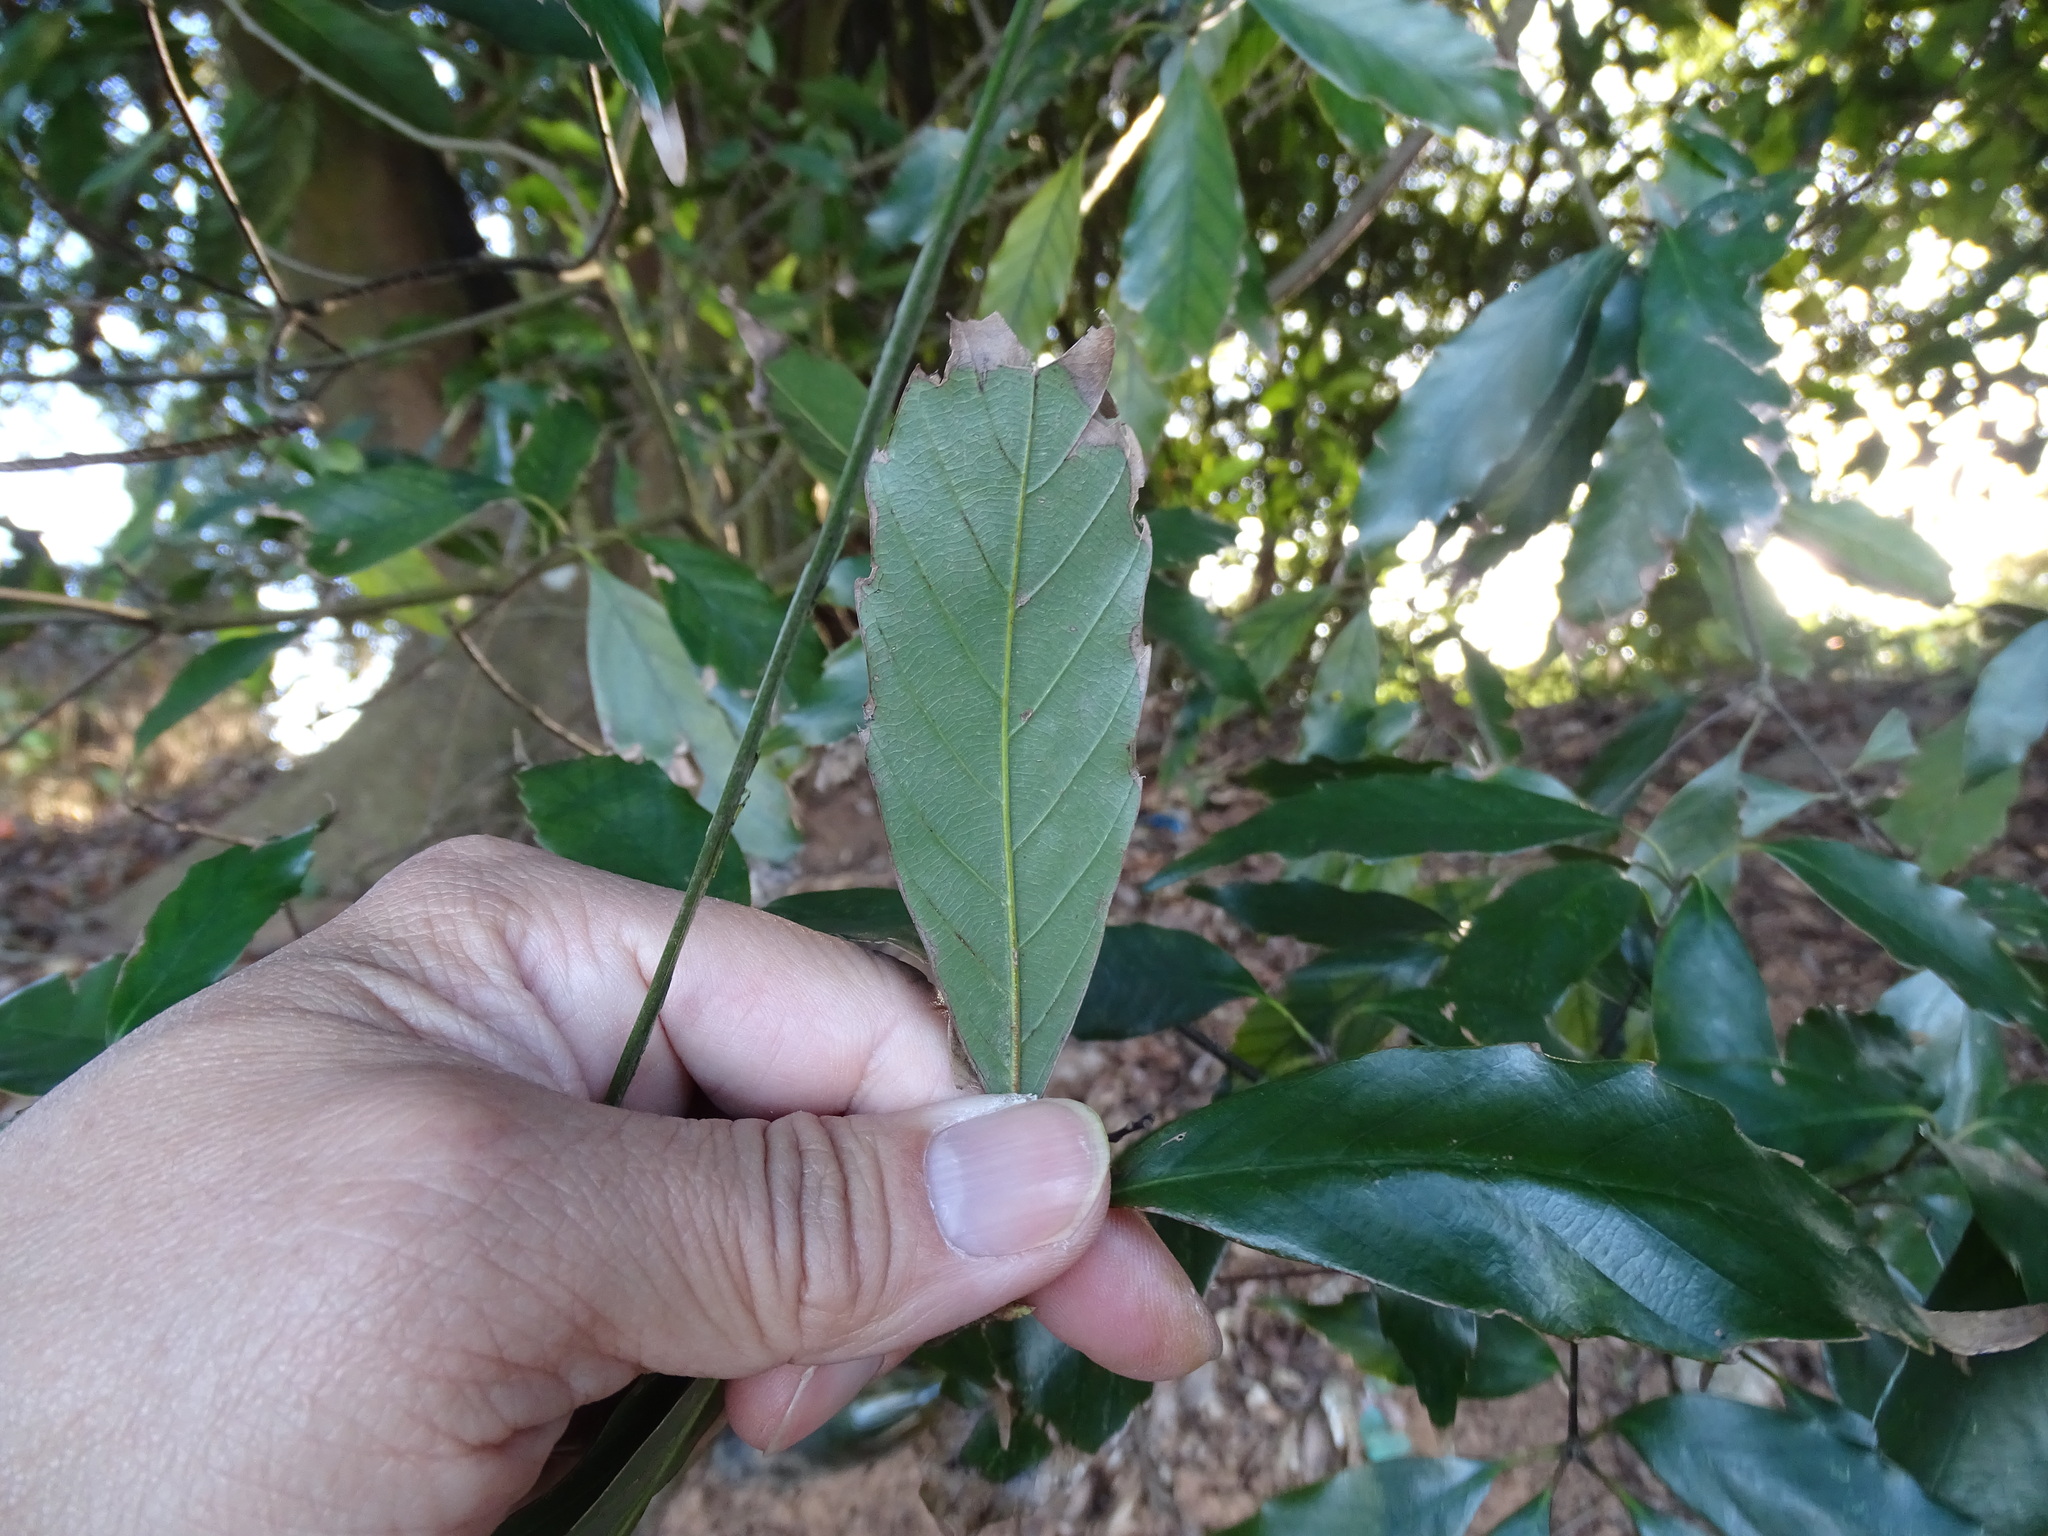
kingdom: Plantae
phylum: Tracheophyta
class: Magnoliopsida
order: Fagales
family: Fagaceae
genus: Quercus
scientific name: Quercus glauca
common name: Ring-cup oak
